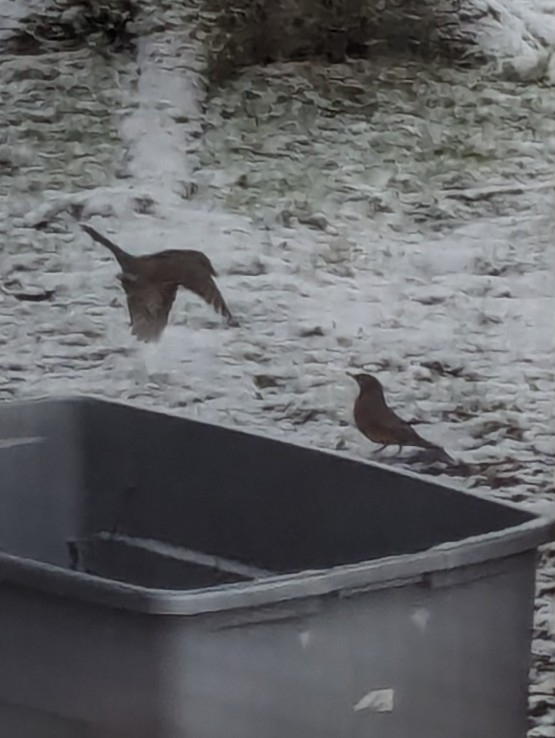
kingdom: Animalia
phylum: Chordata
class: Aves
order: Passeriformes
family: Turdidae
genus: Turdus
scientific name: Turdus migratorius
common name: American robin
